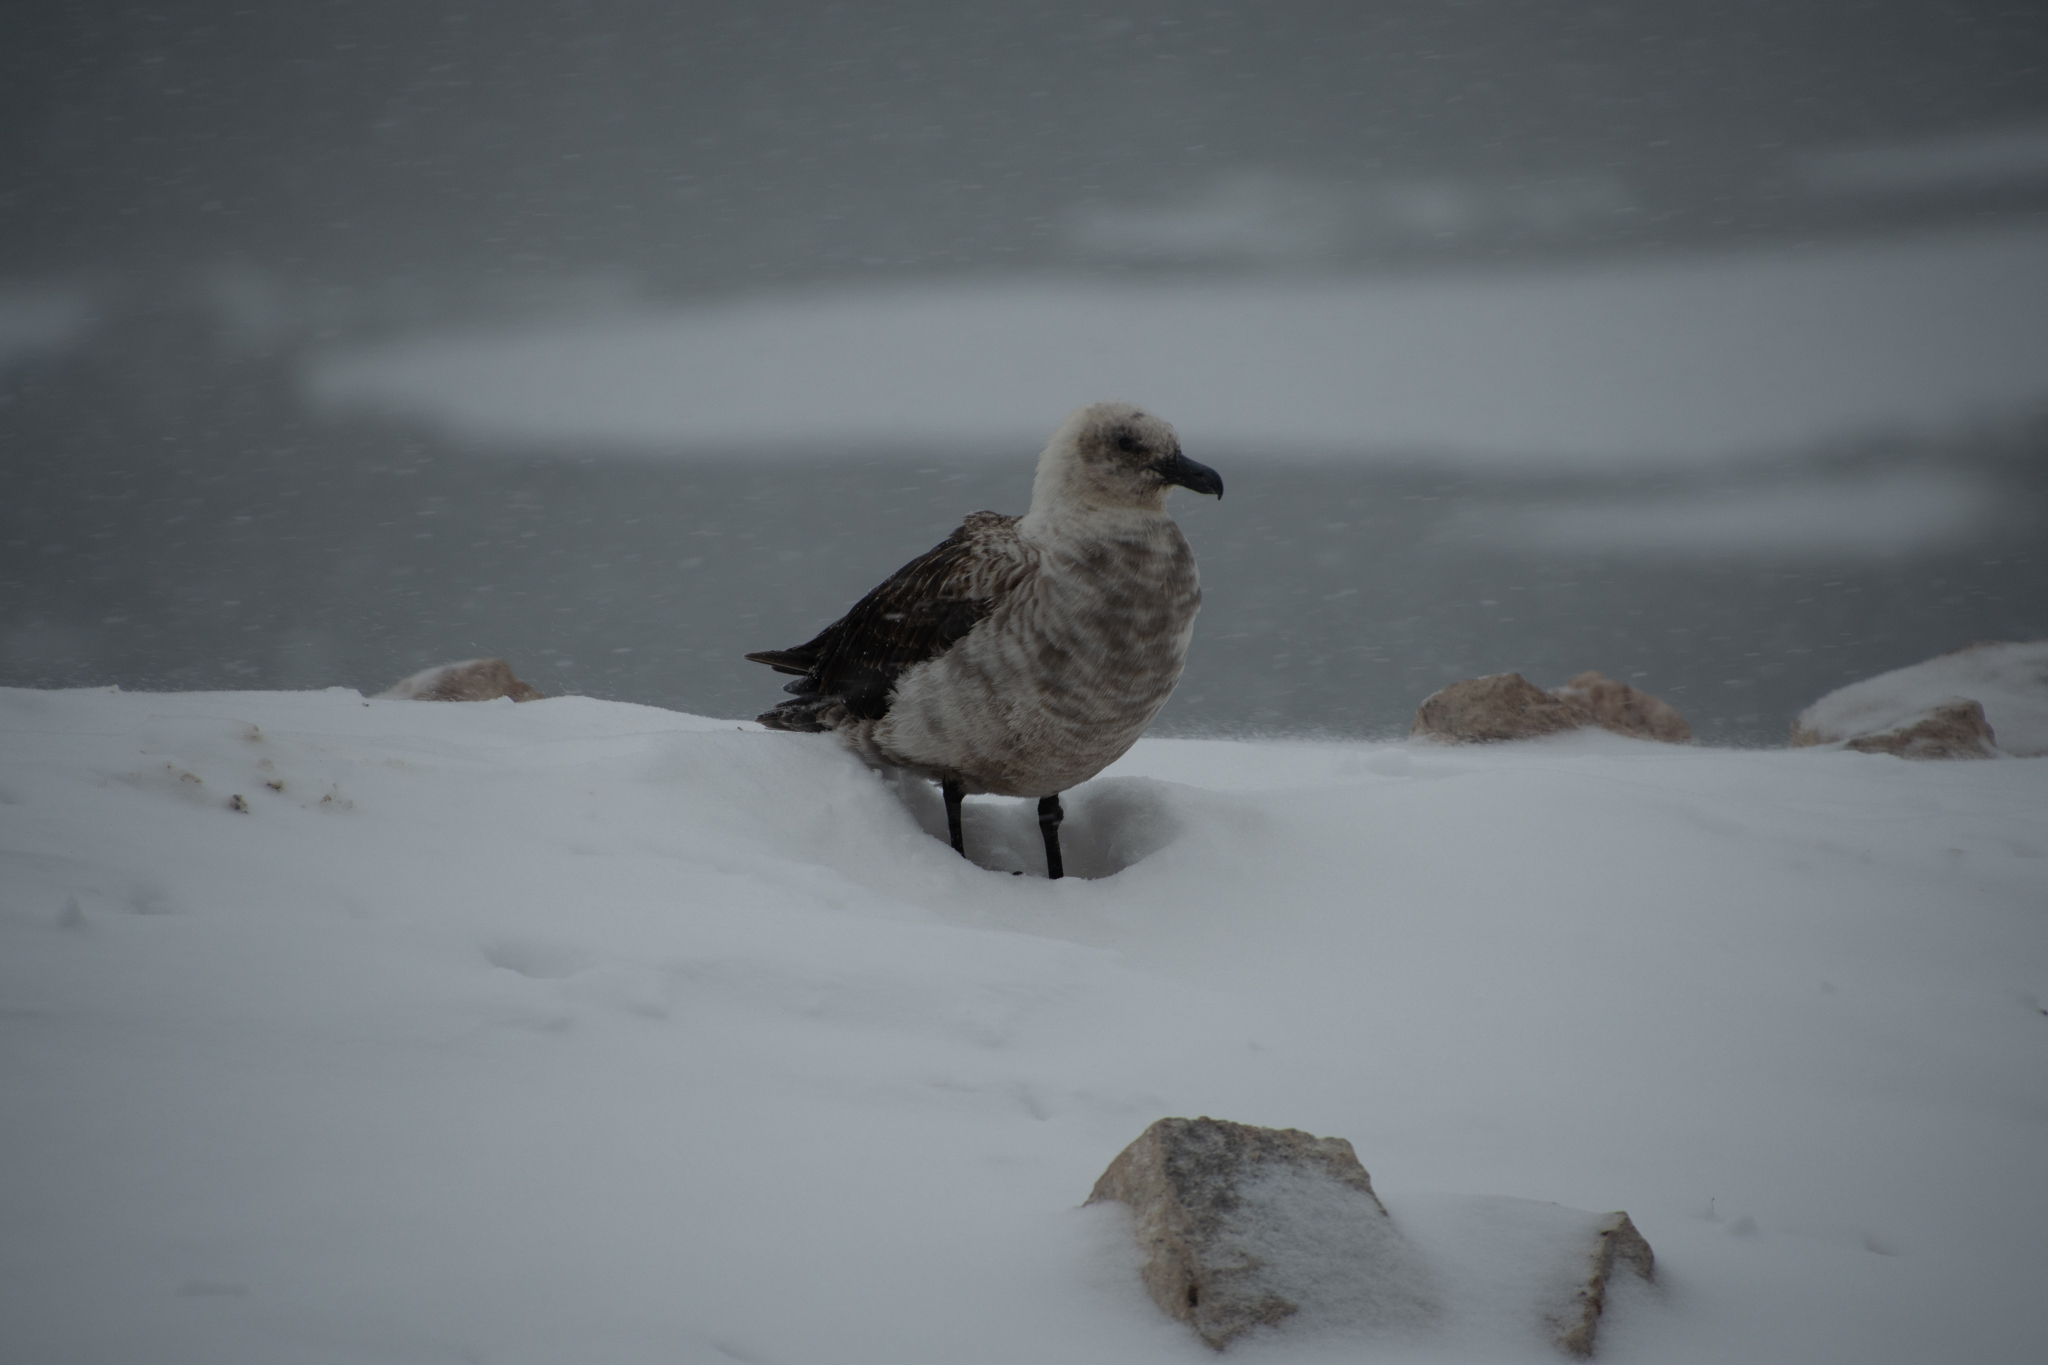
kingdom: Animalia
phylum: Chordata
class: Aves
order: Charadriiformes
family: Stercorariidae
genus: Stercorarius
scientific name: Stercorarius maccormicki
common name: South polar skua
